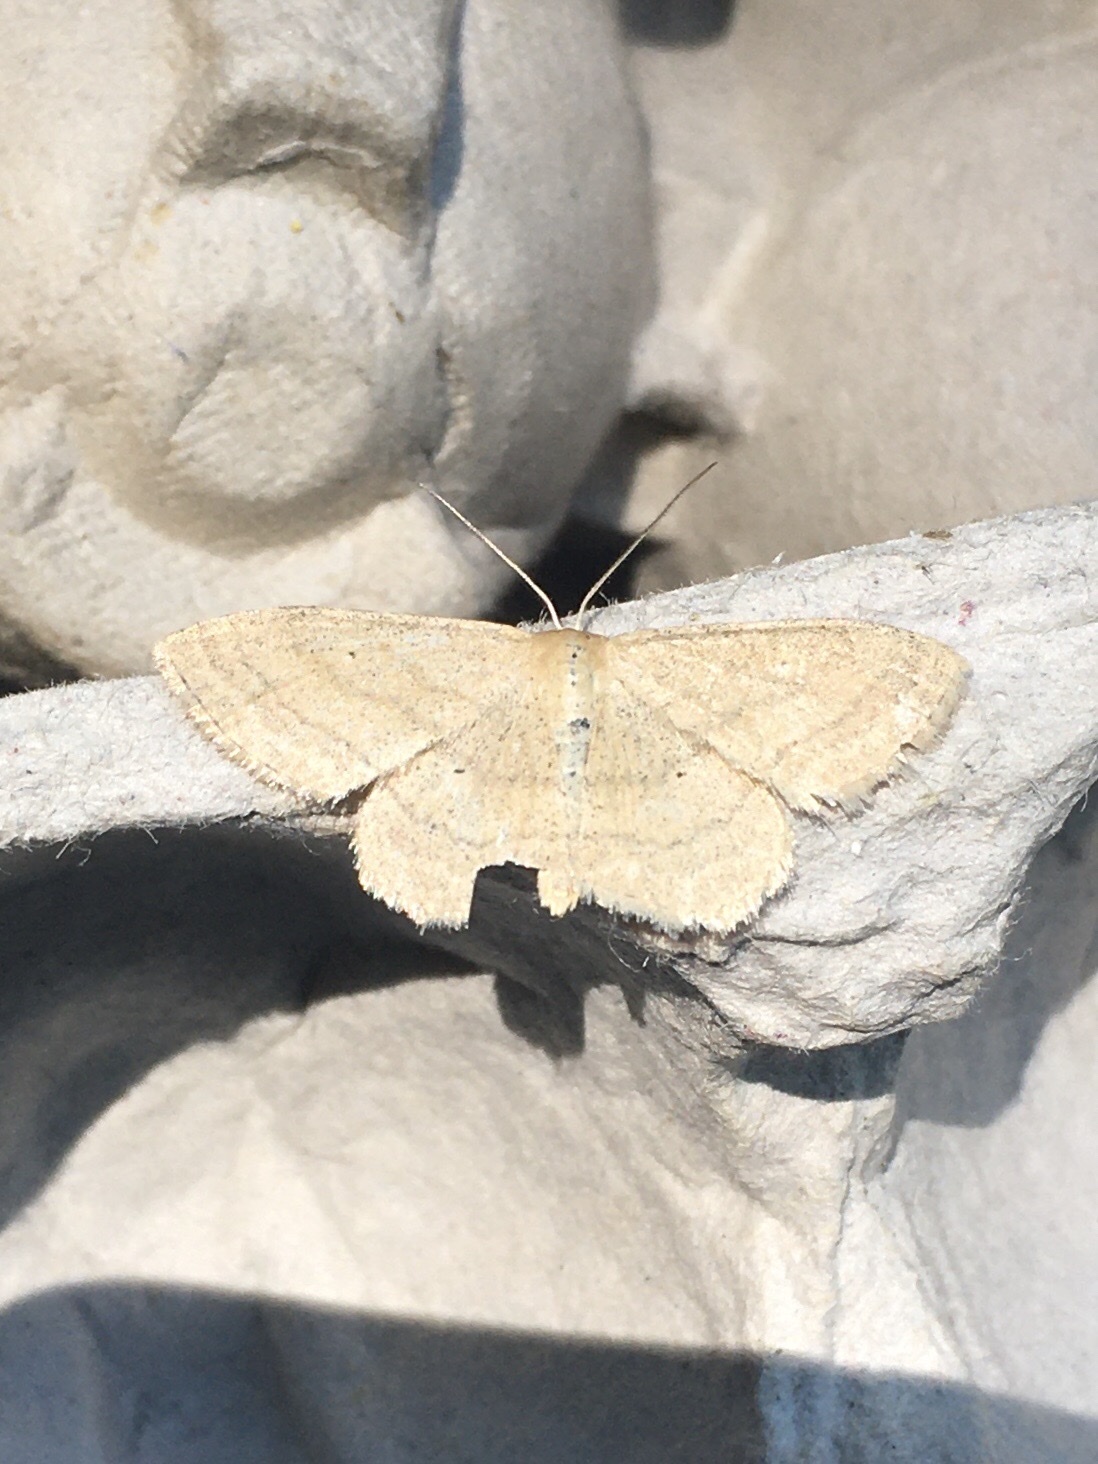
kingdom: Animalia
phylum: Arthropoda
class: Insecta
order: Lepidoptera
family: Geometridae
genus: Scopula
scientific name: Scopula inductata
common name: Soft-lined wave
